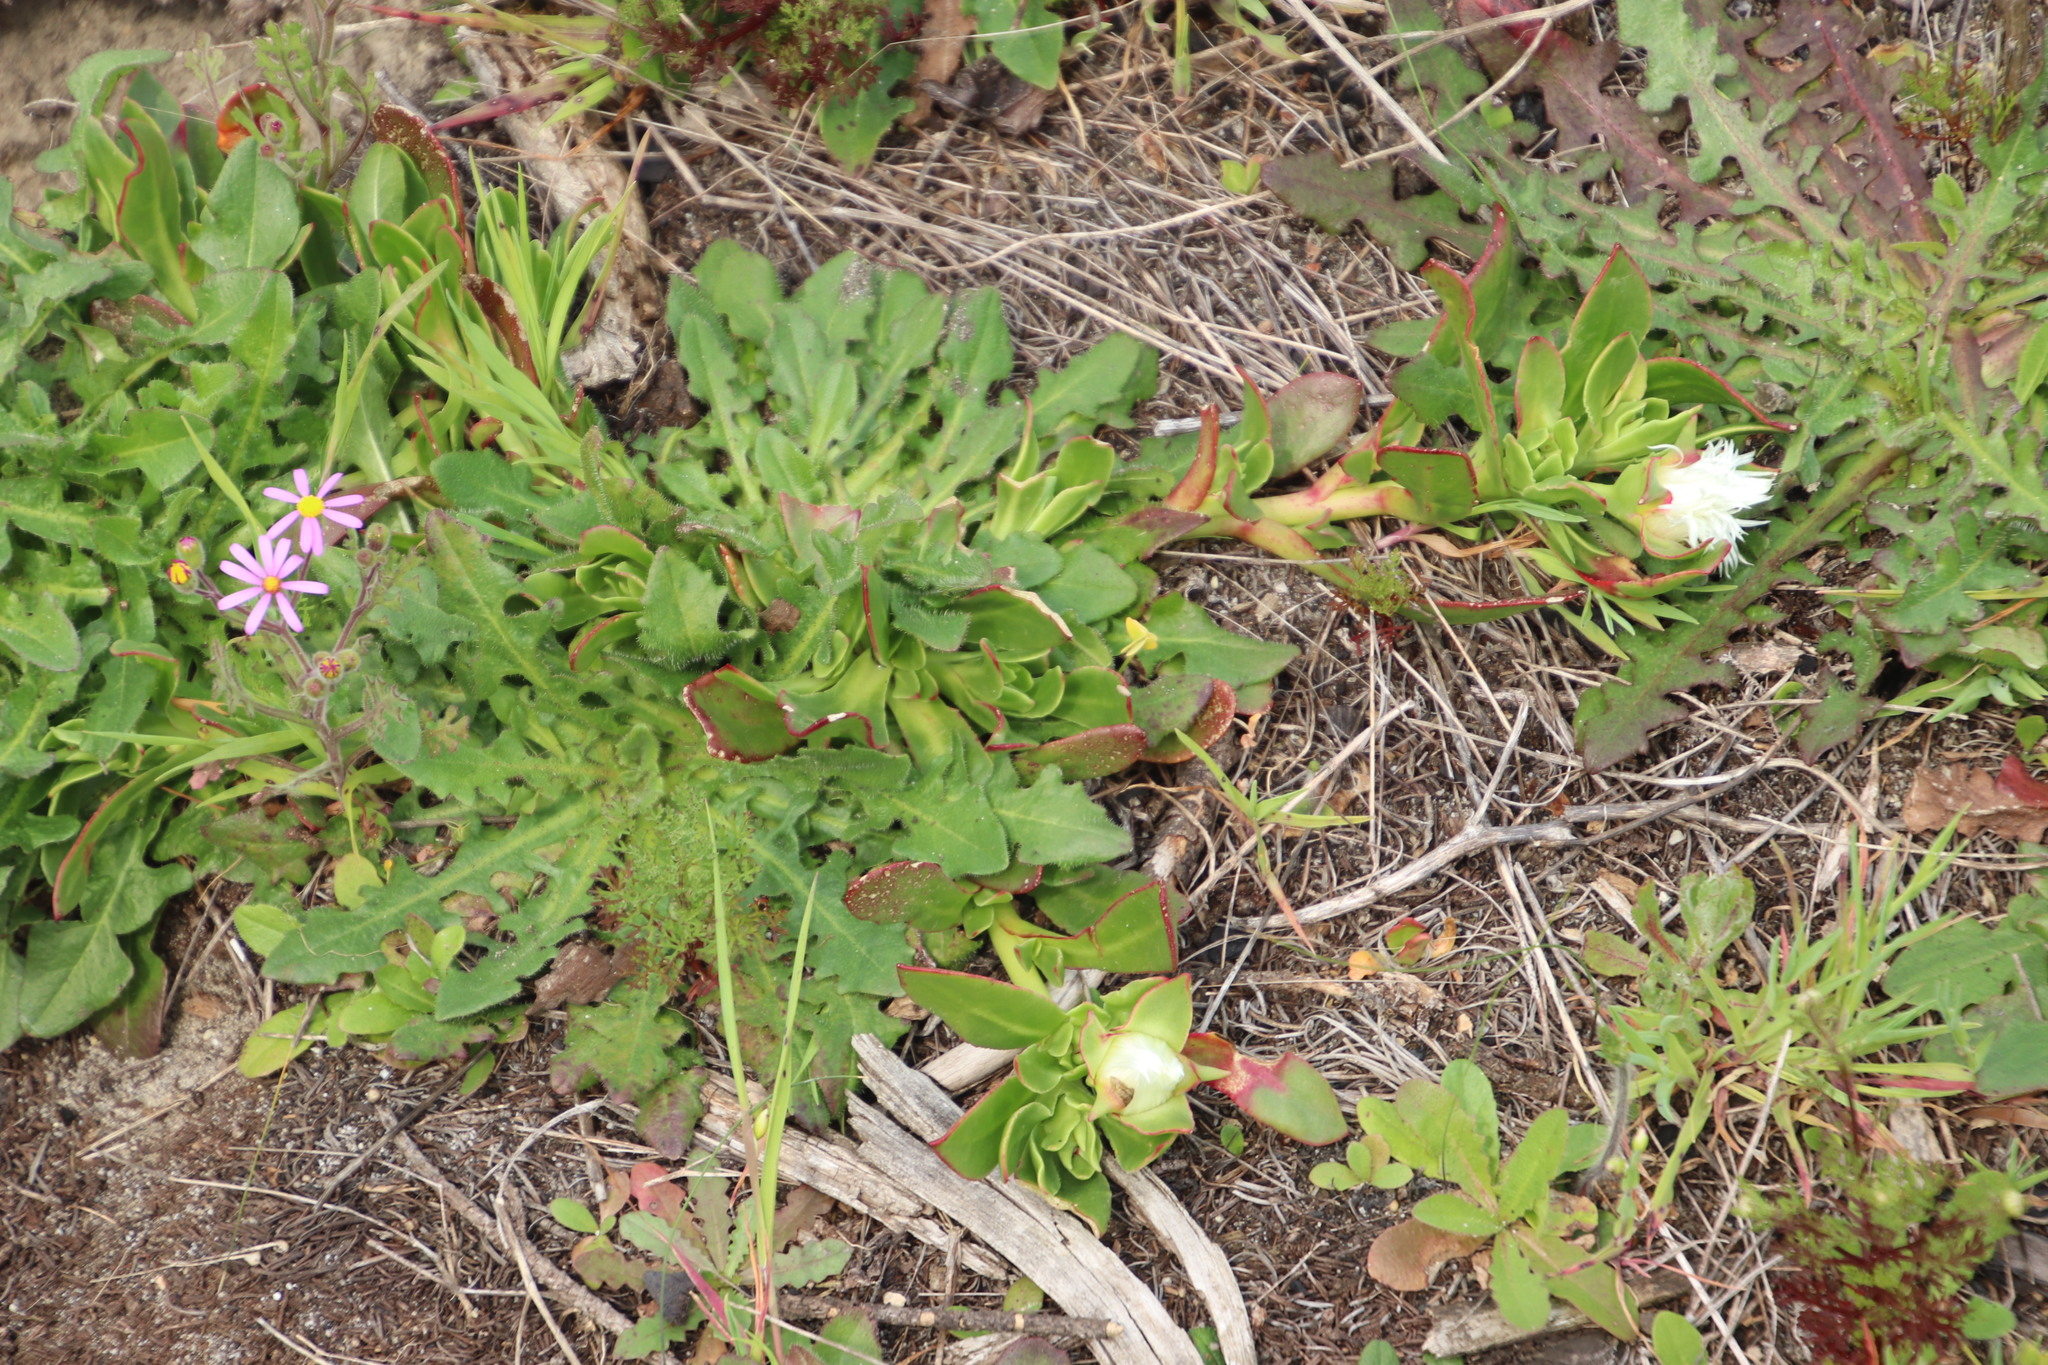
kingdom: Plantae
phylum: Tracheophyta
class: Magnoliopsida
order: Caryophyllales
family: Aizoaceae
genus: Skiatophytum
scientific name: Skiatophytum tripolium
